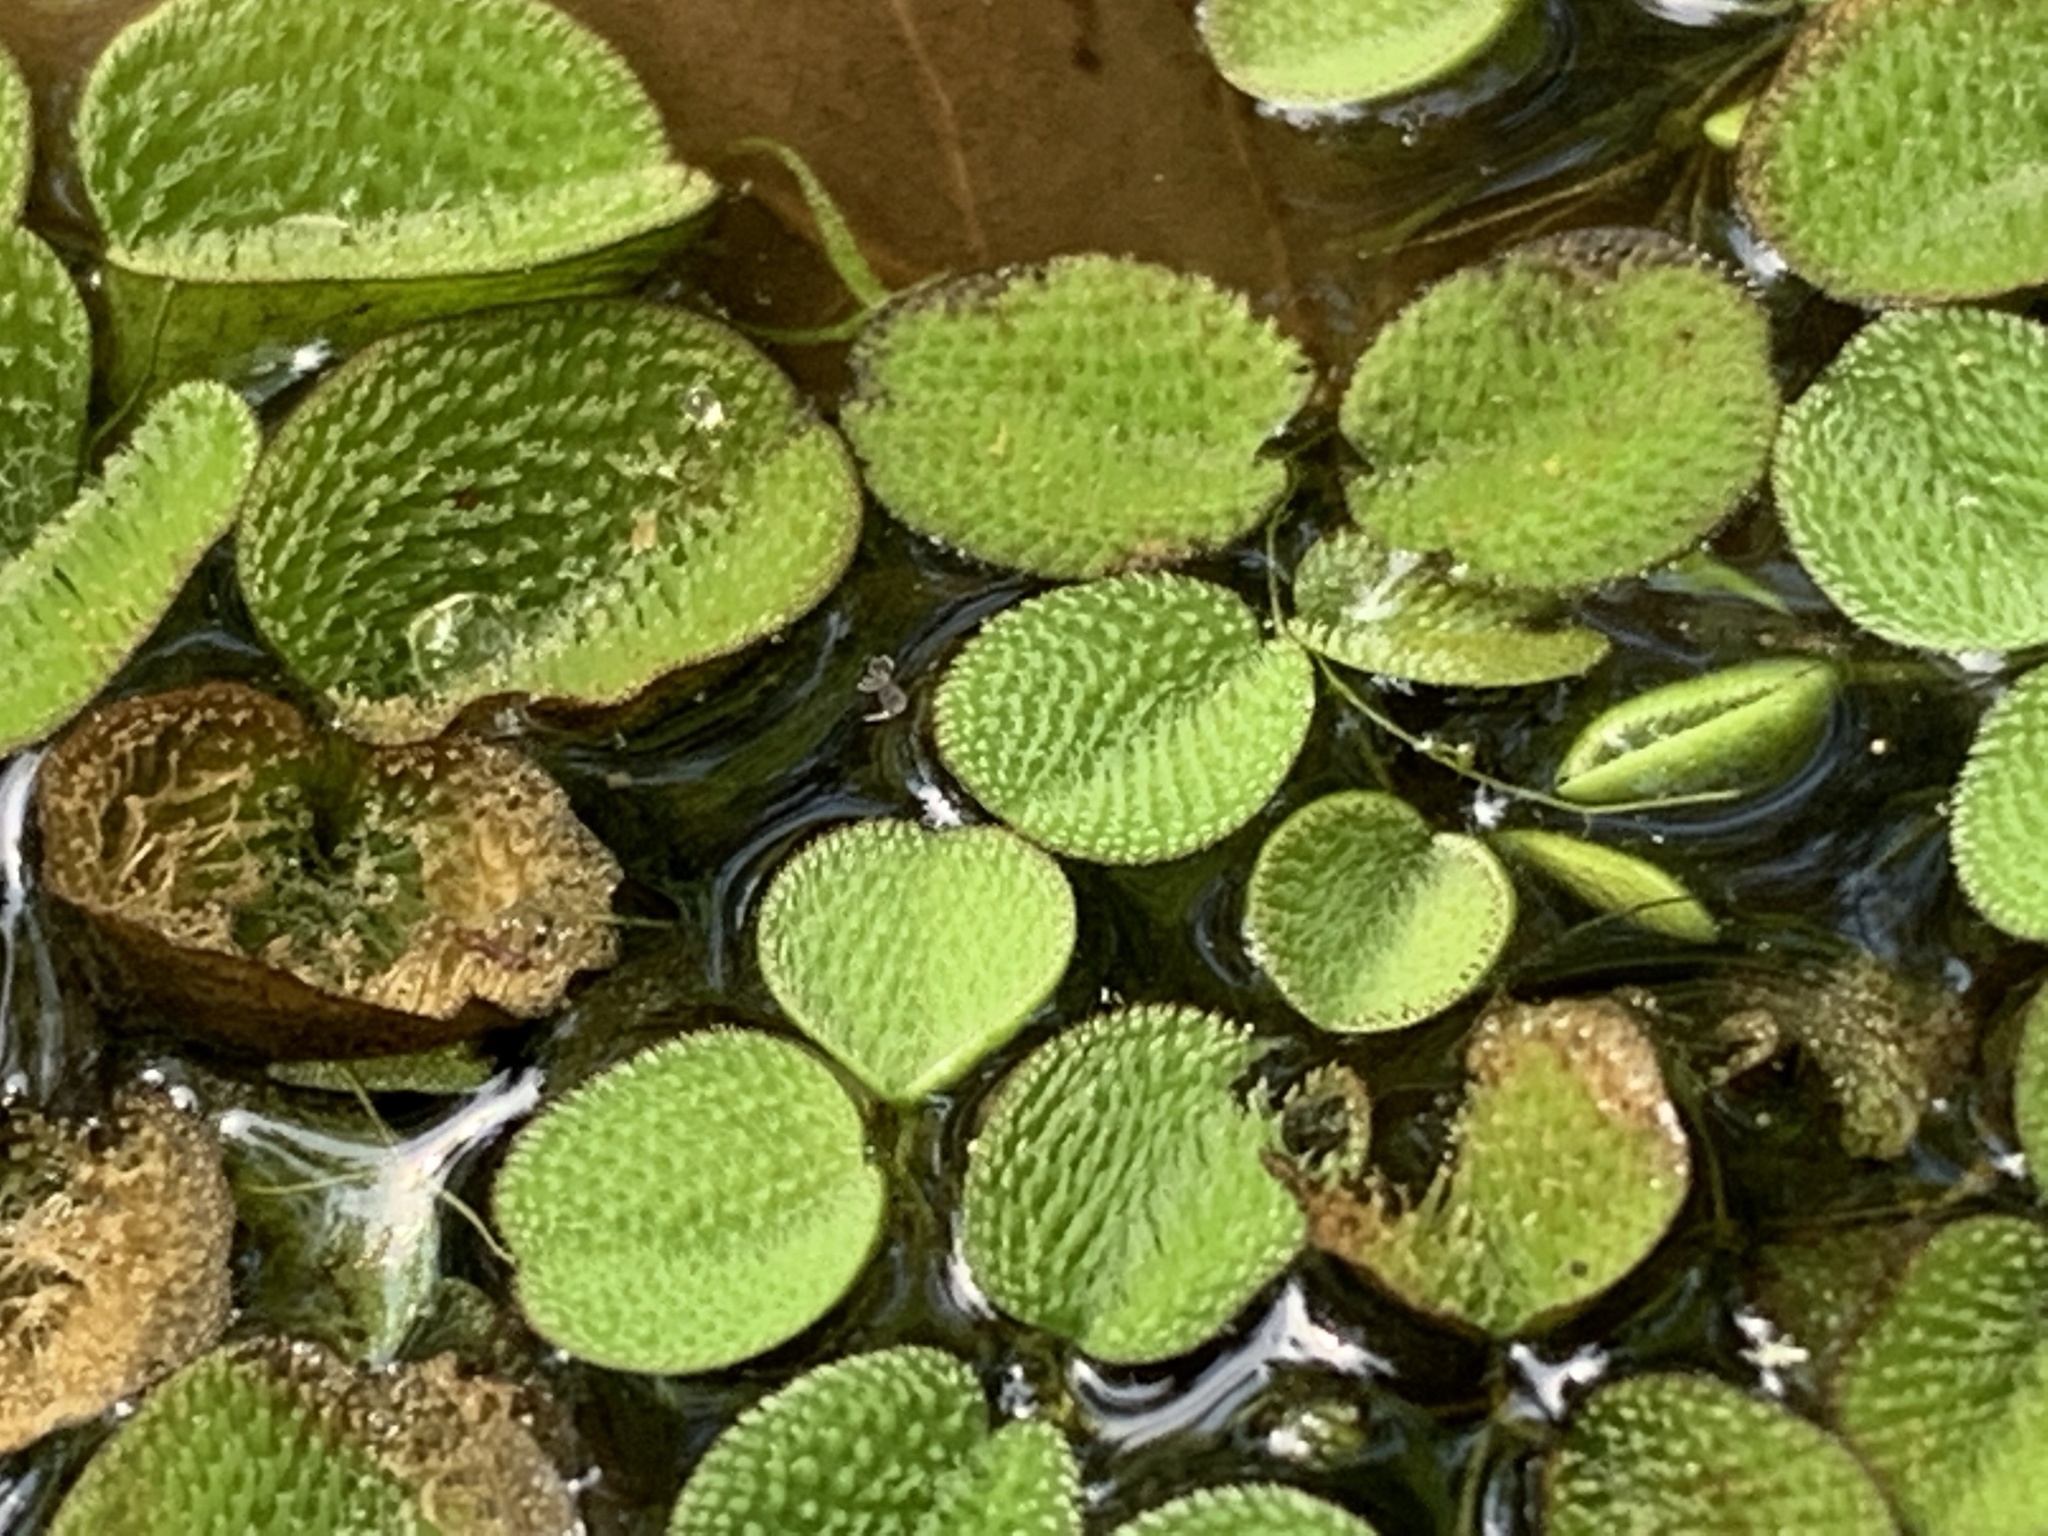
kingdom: Plantae
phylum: Tracheophyta
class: Polypodiopsida
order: Salviniales
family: Salviniaceae
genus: Salvinia
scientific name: Salvinia minima
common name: Water spangles
